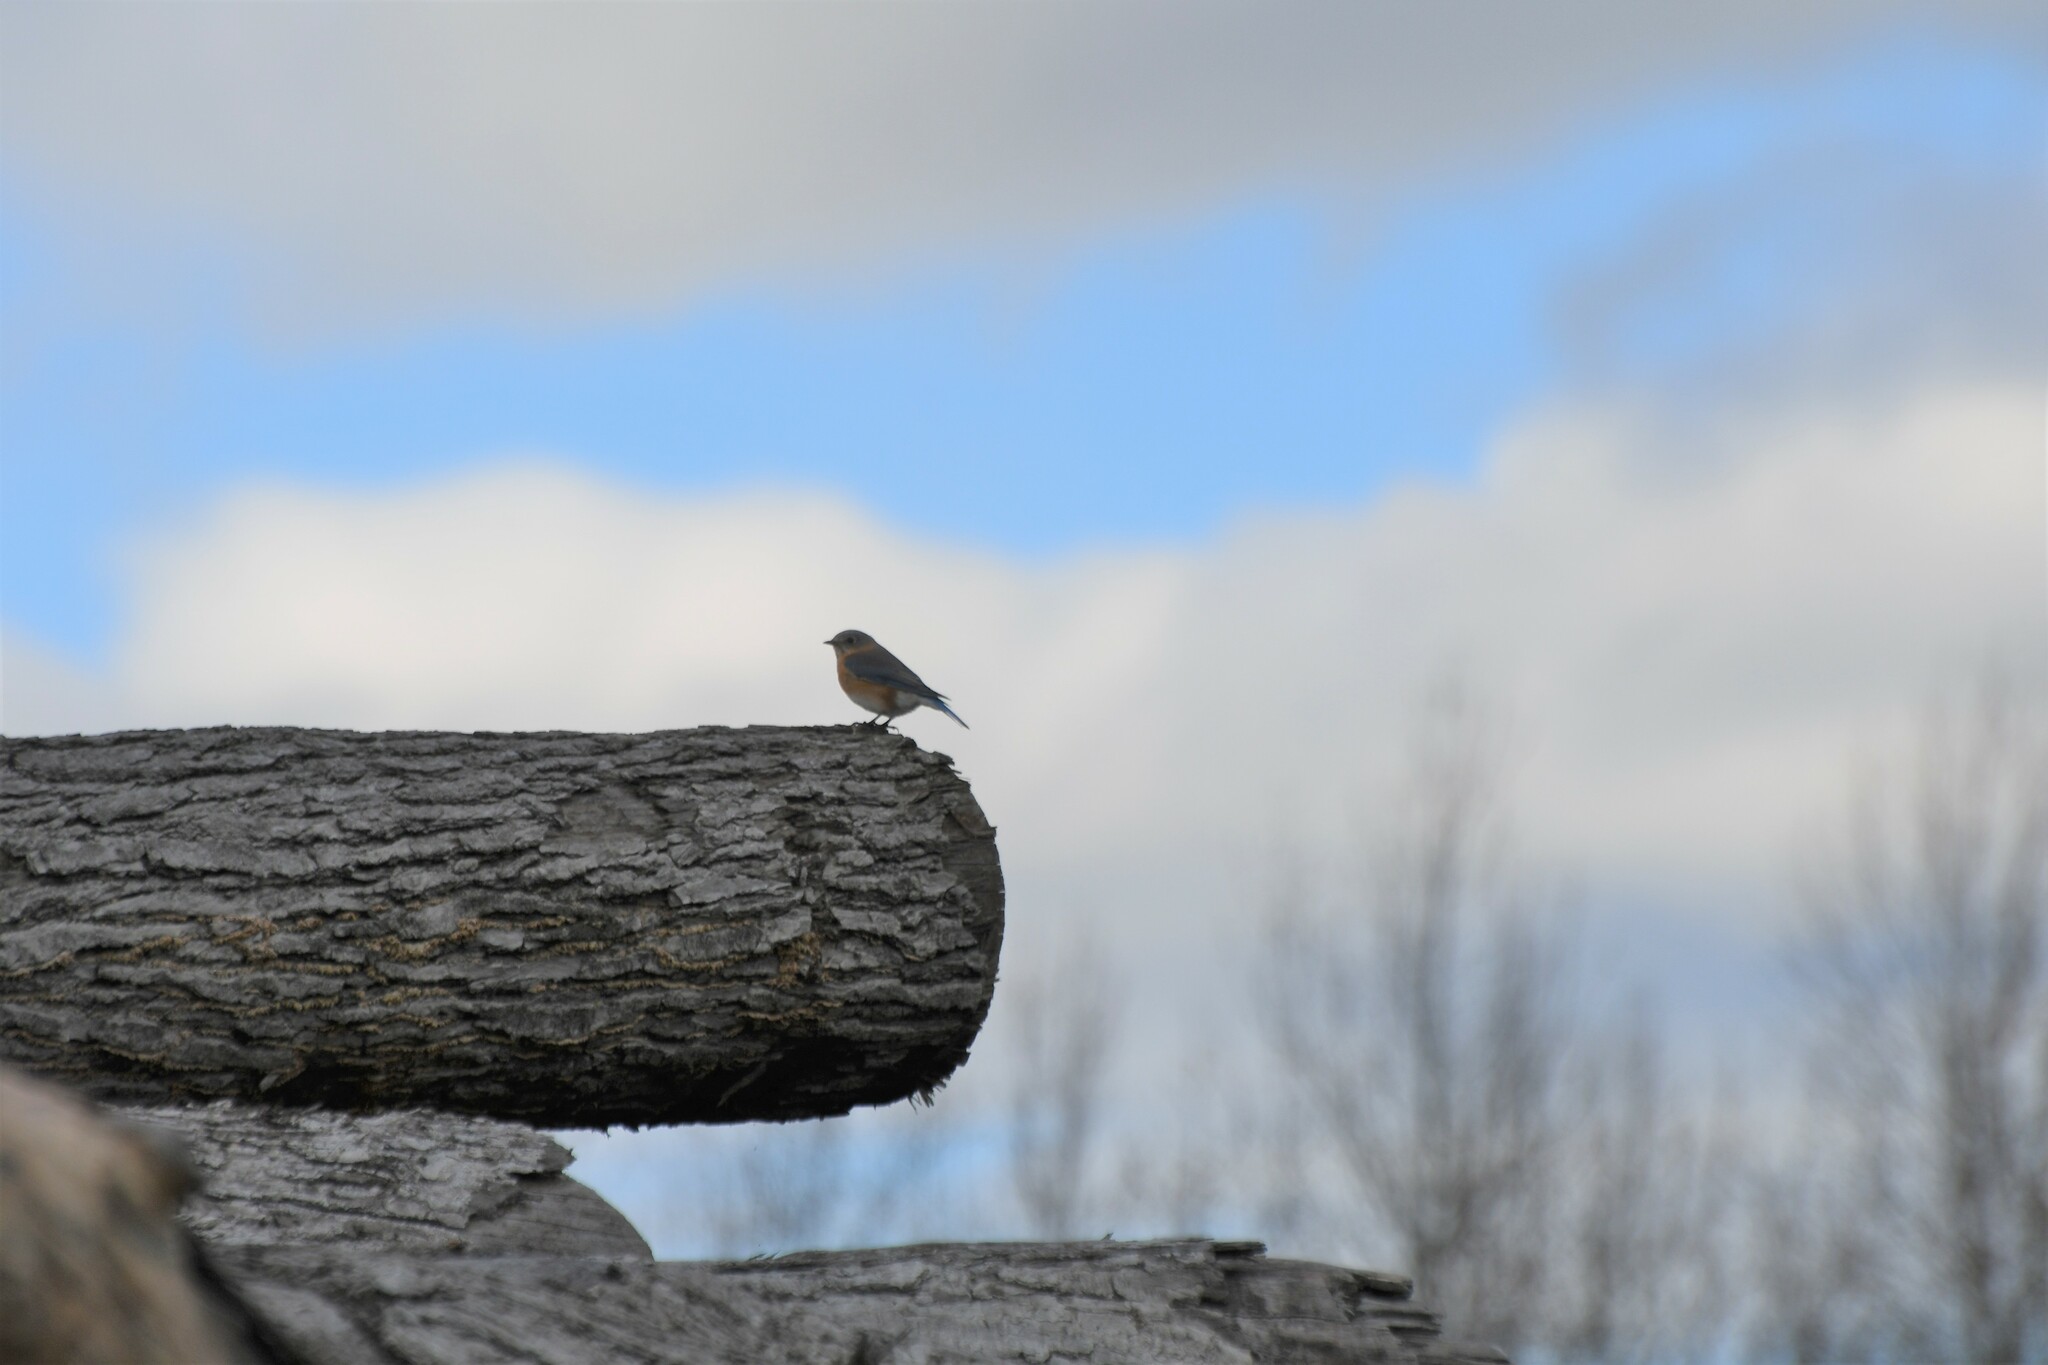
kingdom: Animalia
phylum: Chordata
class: Aves
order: Passeriformes
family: Turdidae
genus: Sialia
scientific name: Sialia sialis
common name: Eastern bluebird
